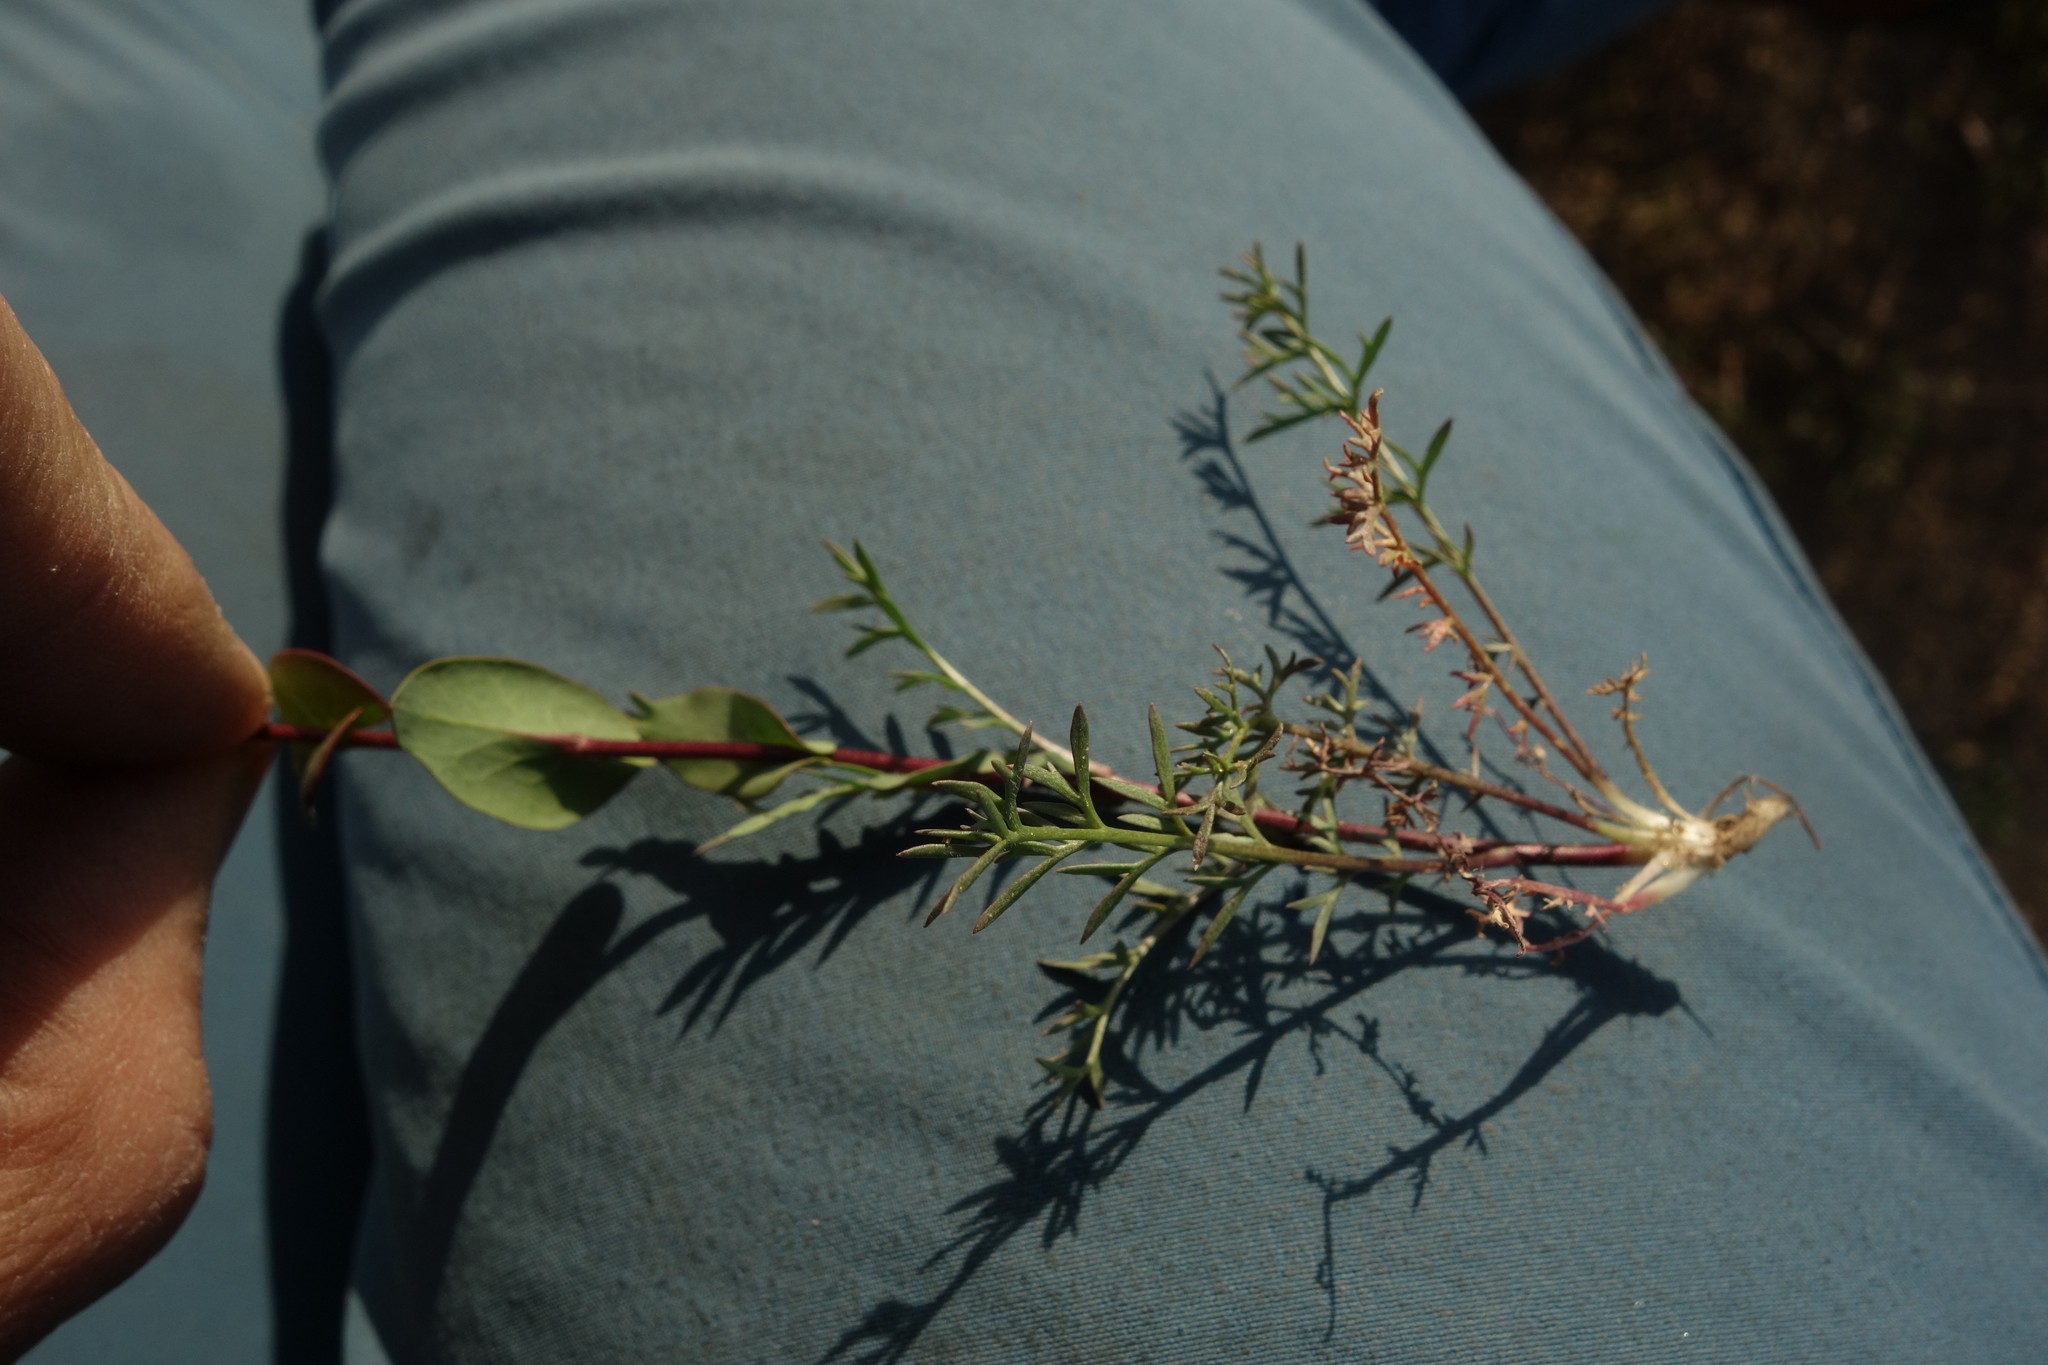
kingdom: Plantae
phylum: Tracheophyta
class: Magnoliopsida
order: Brassicales
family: Brassicaceae
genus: Lepidium
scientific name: Lepidium perfoliatum
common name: Perfoliate pepperwort
